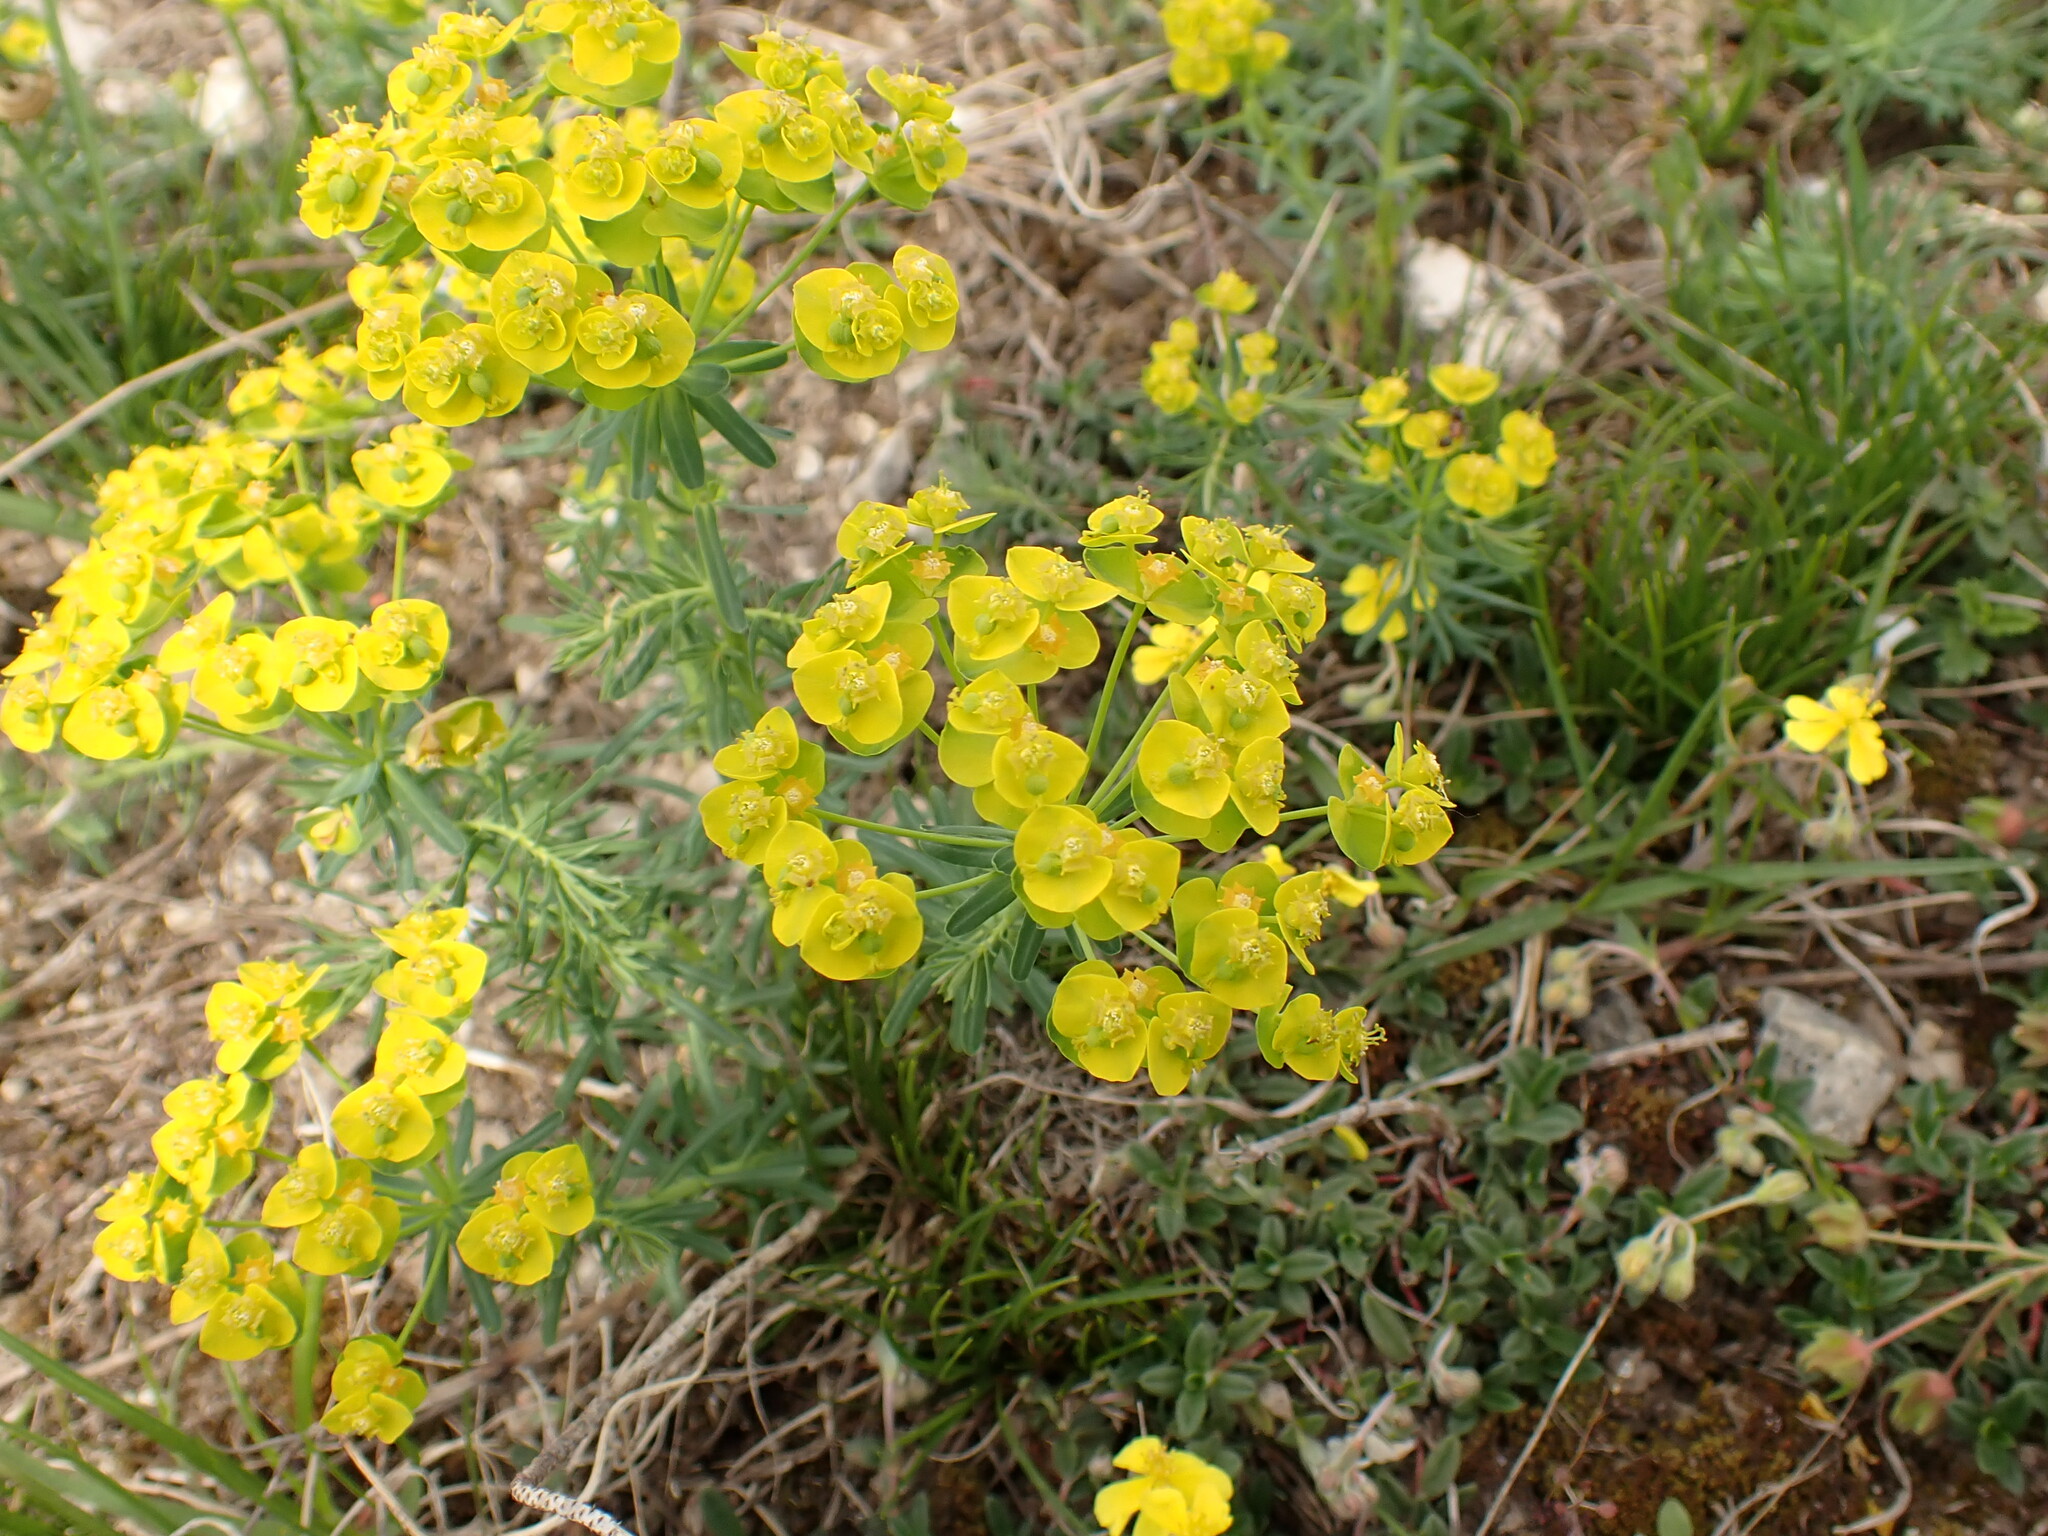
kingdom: Plantae
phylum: Tracheophyta
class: Magnoliopsida
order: Malpighiales
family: Euphorbiaceae
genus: Euphorbia
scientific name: Euphorbia cyparissias
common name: Cypress spurge
